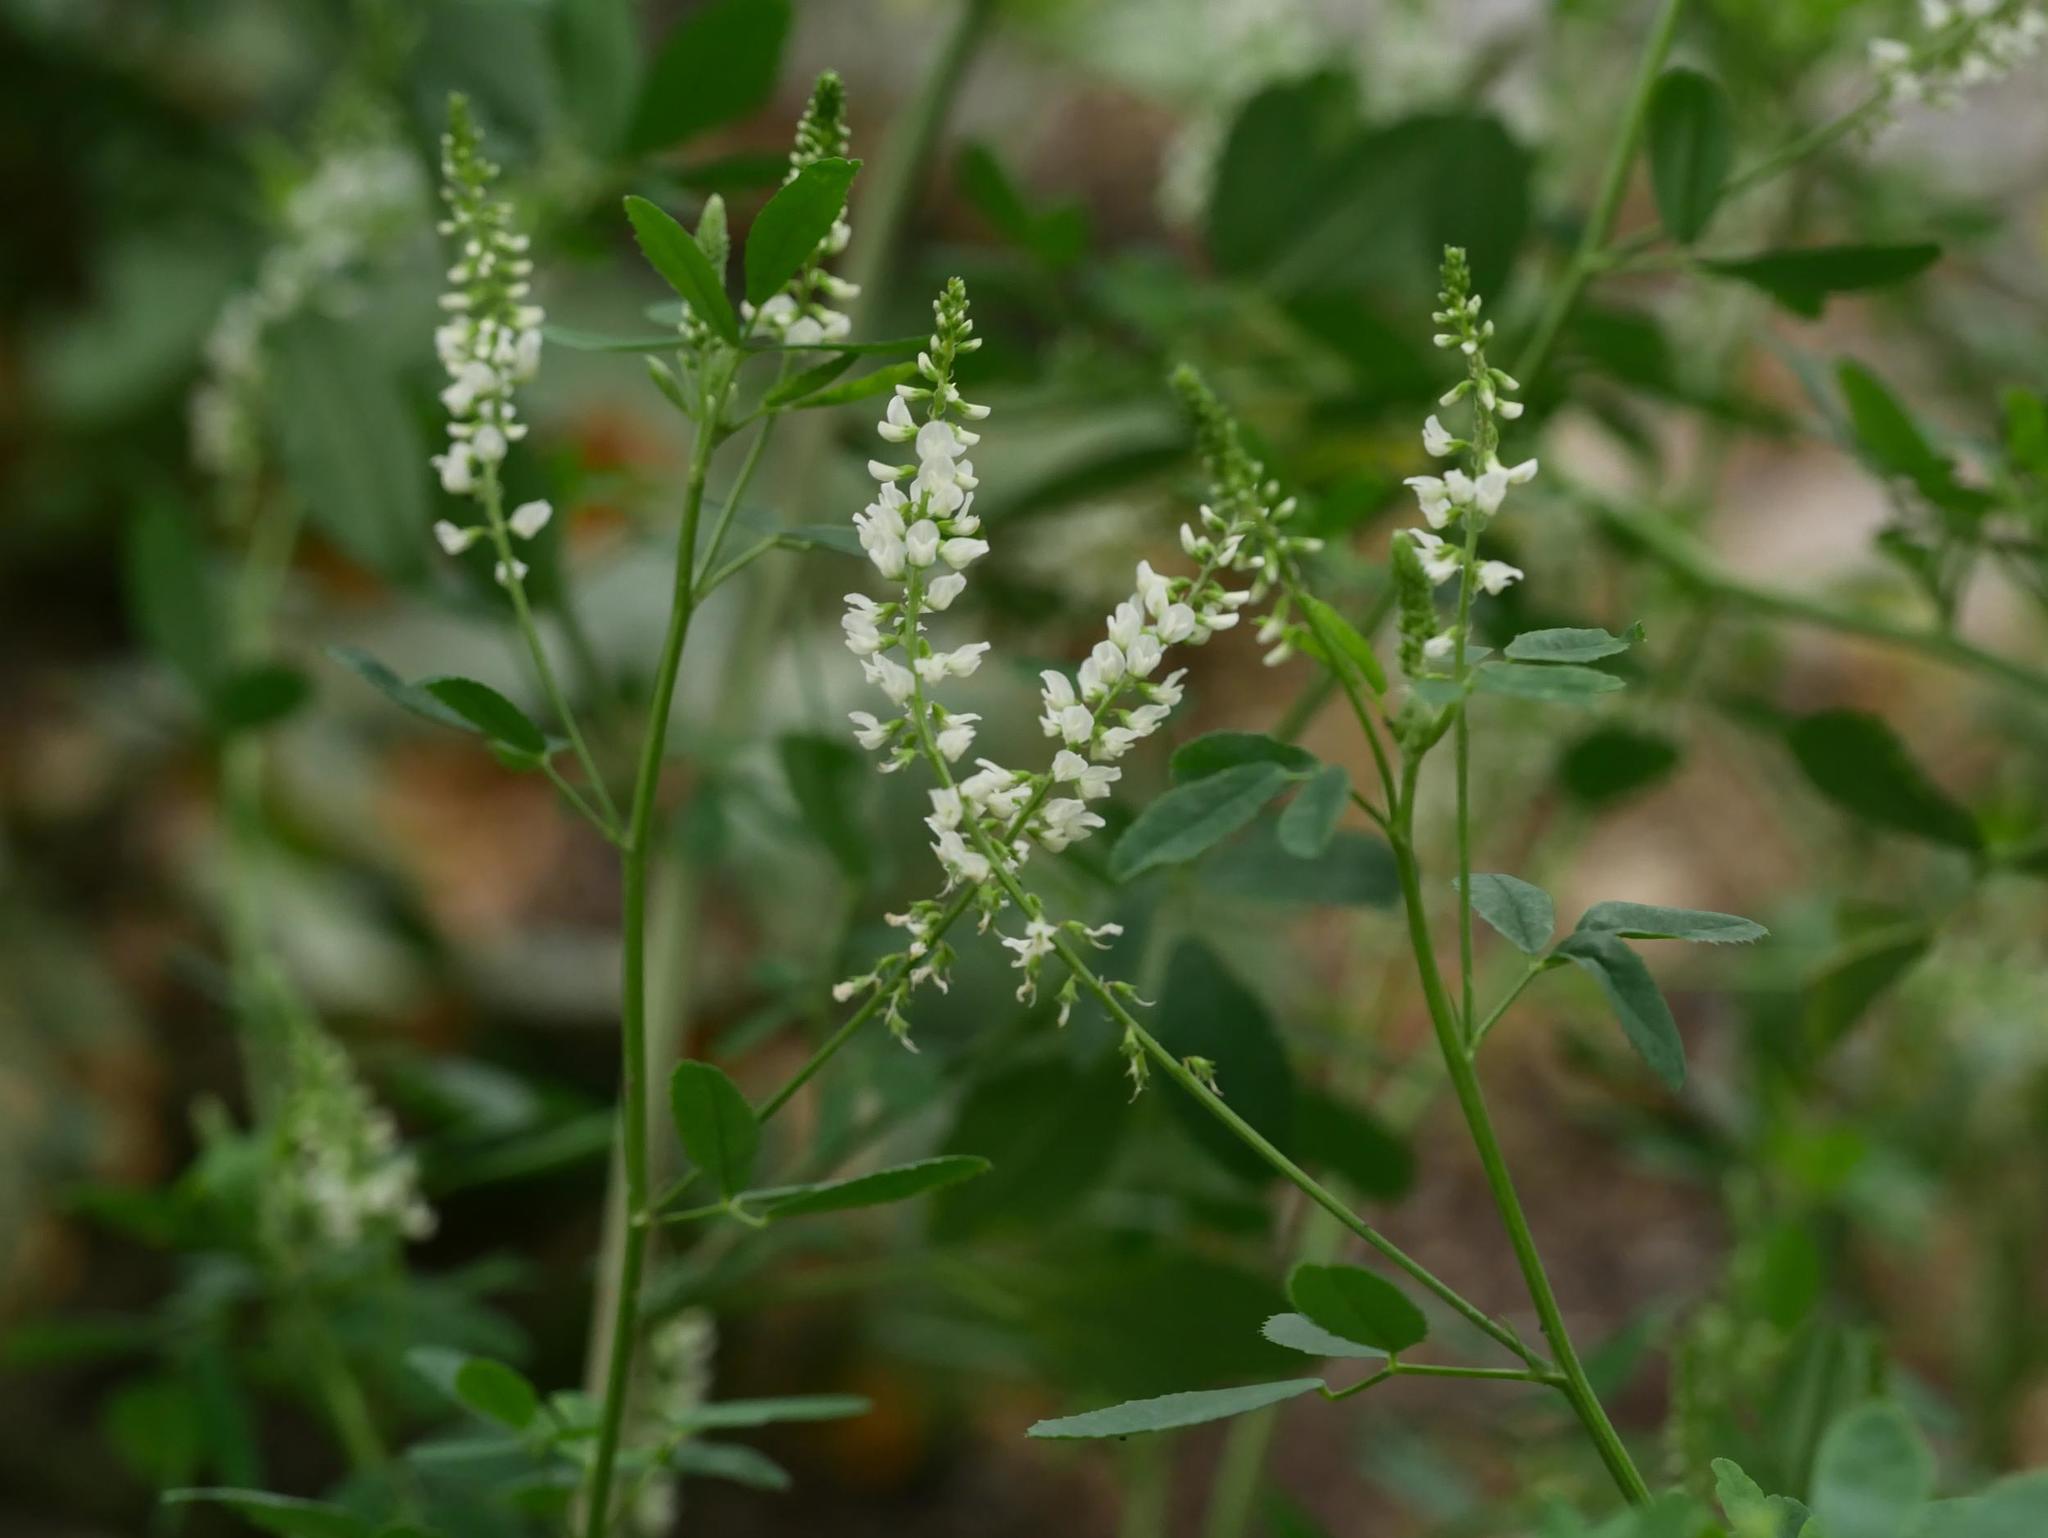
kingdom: Plantae
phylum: Tracheophyta
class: Magnoliopsida
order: Fabales
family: Fabaceae
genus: Melilotus
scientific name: Melilotus albus
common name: White melilot
